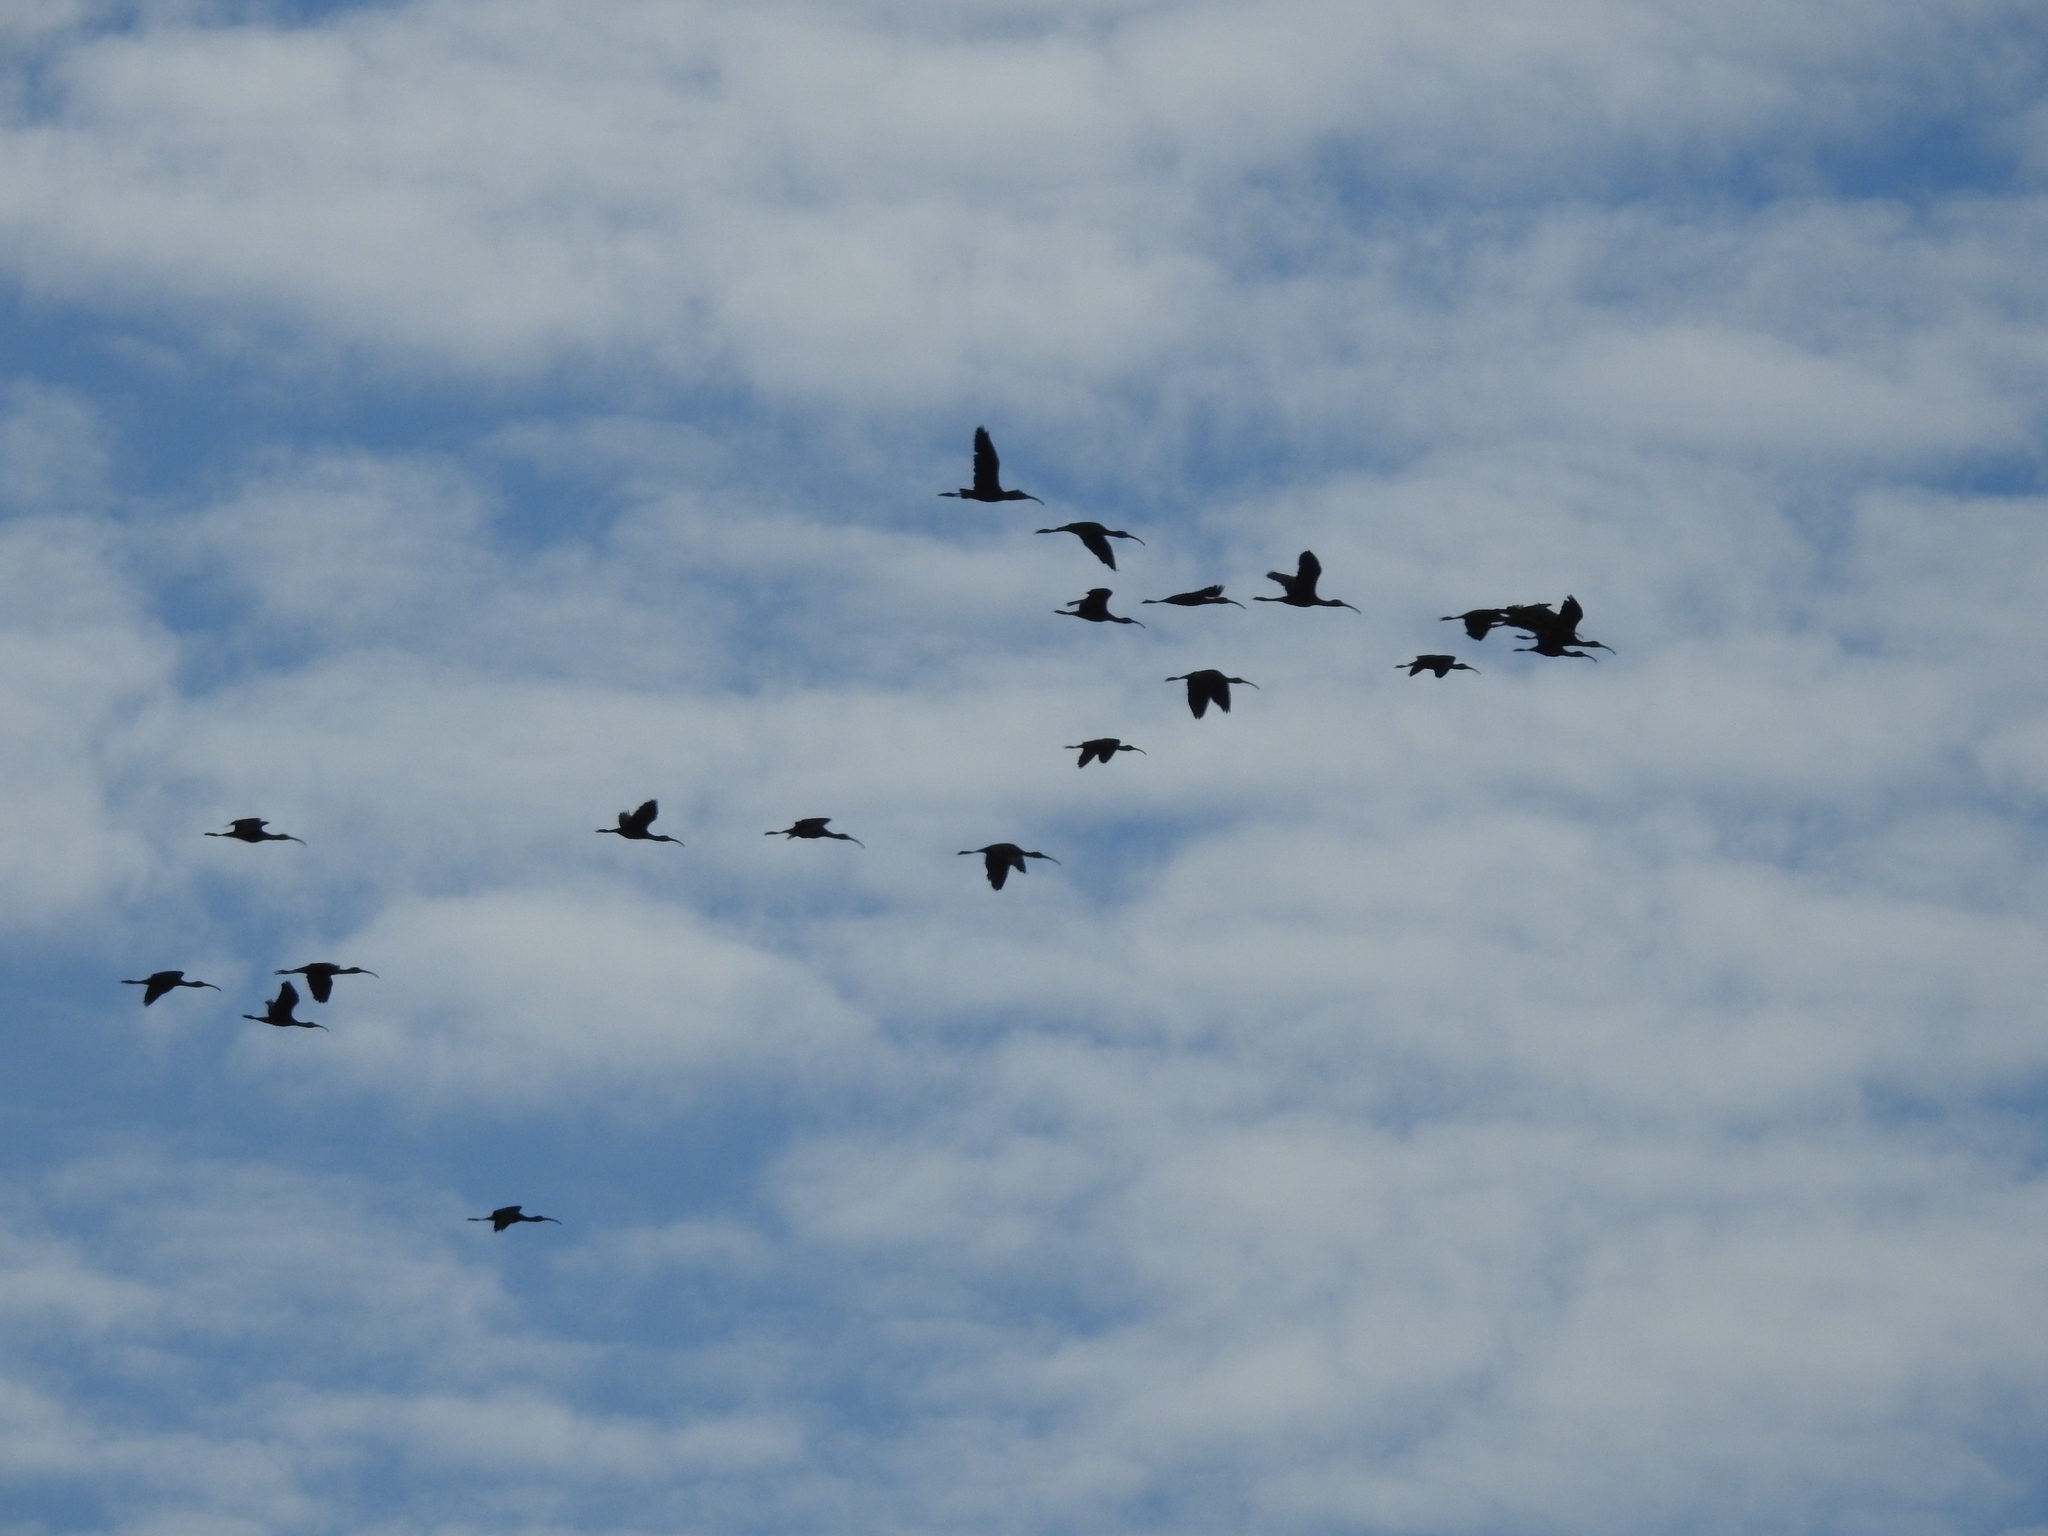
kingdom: Animalia
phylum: Chordata
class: Aves
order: Pelecaniformes
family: Threskiornithidae
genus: Plegadis
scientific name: Plegadis chihi
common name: White-faced ibis
